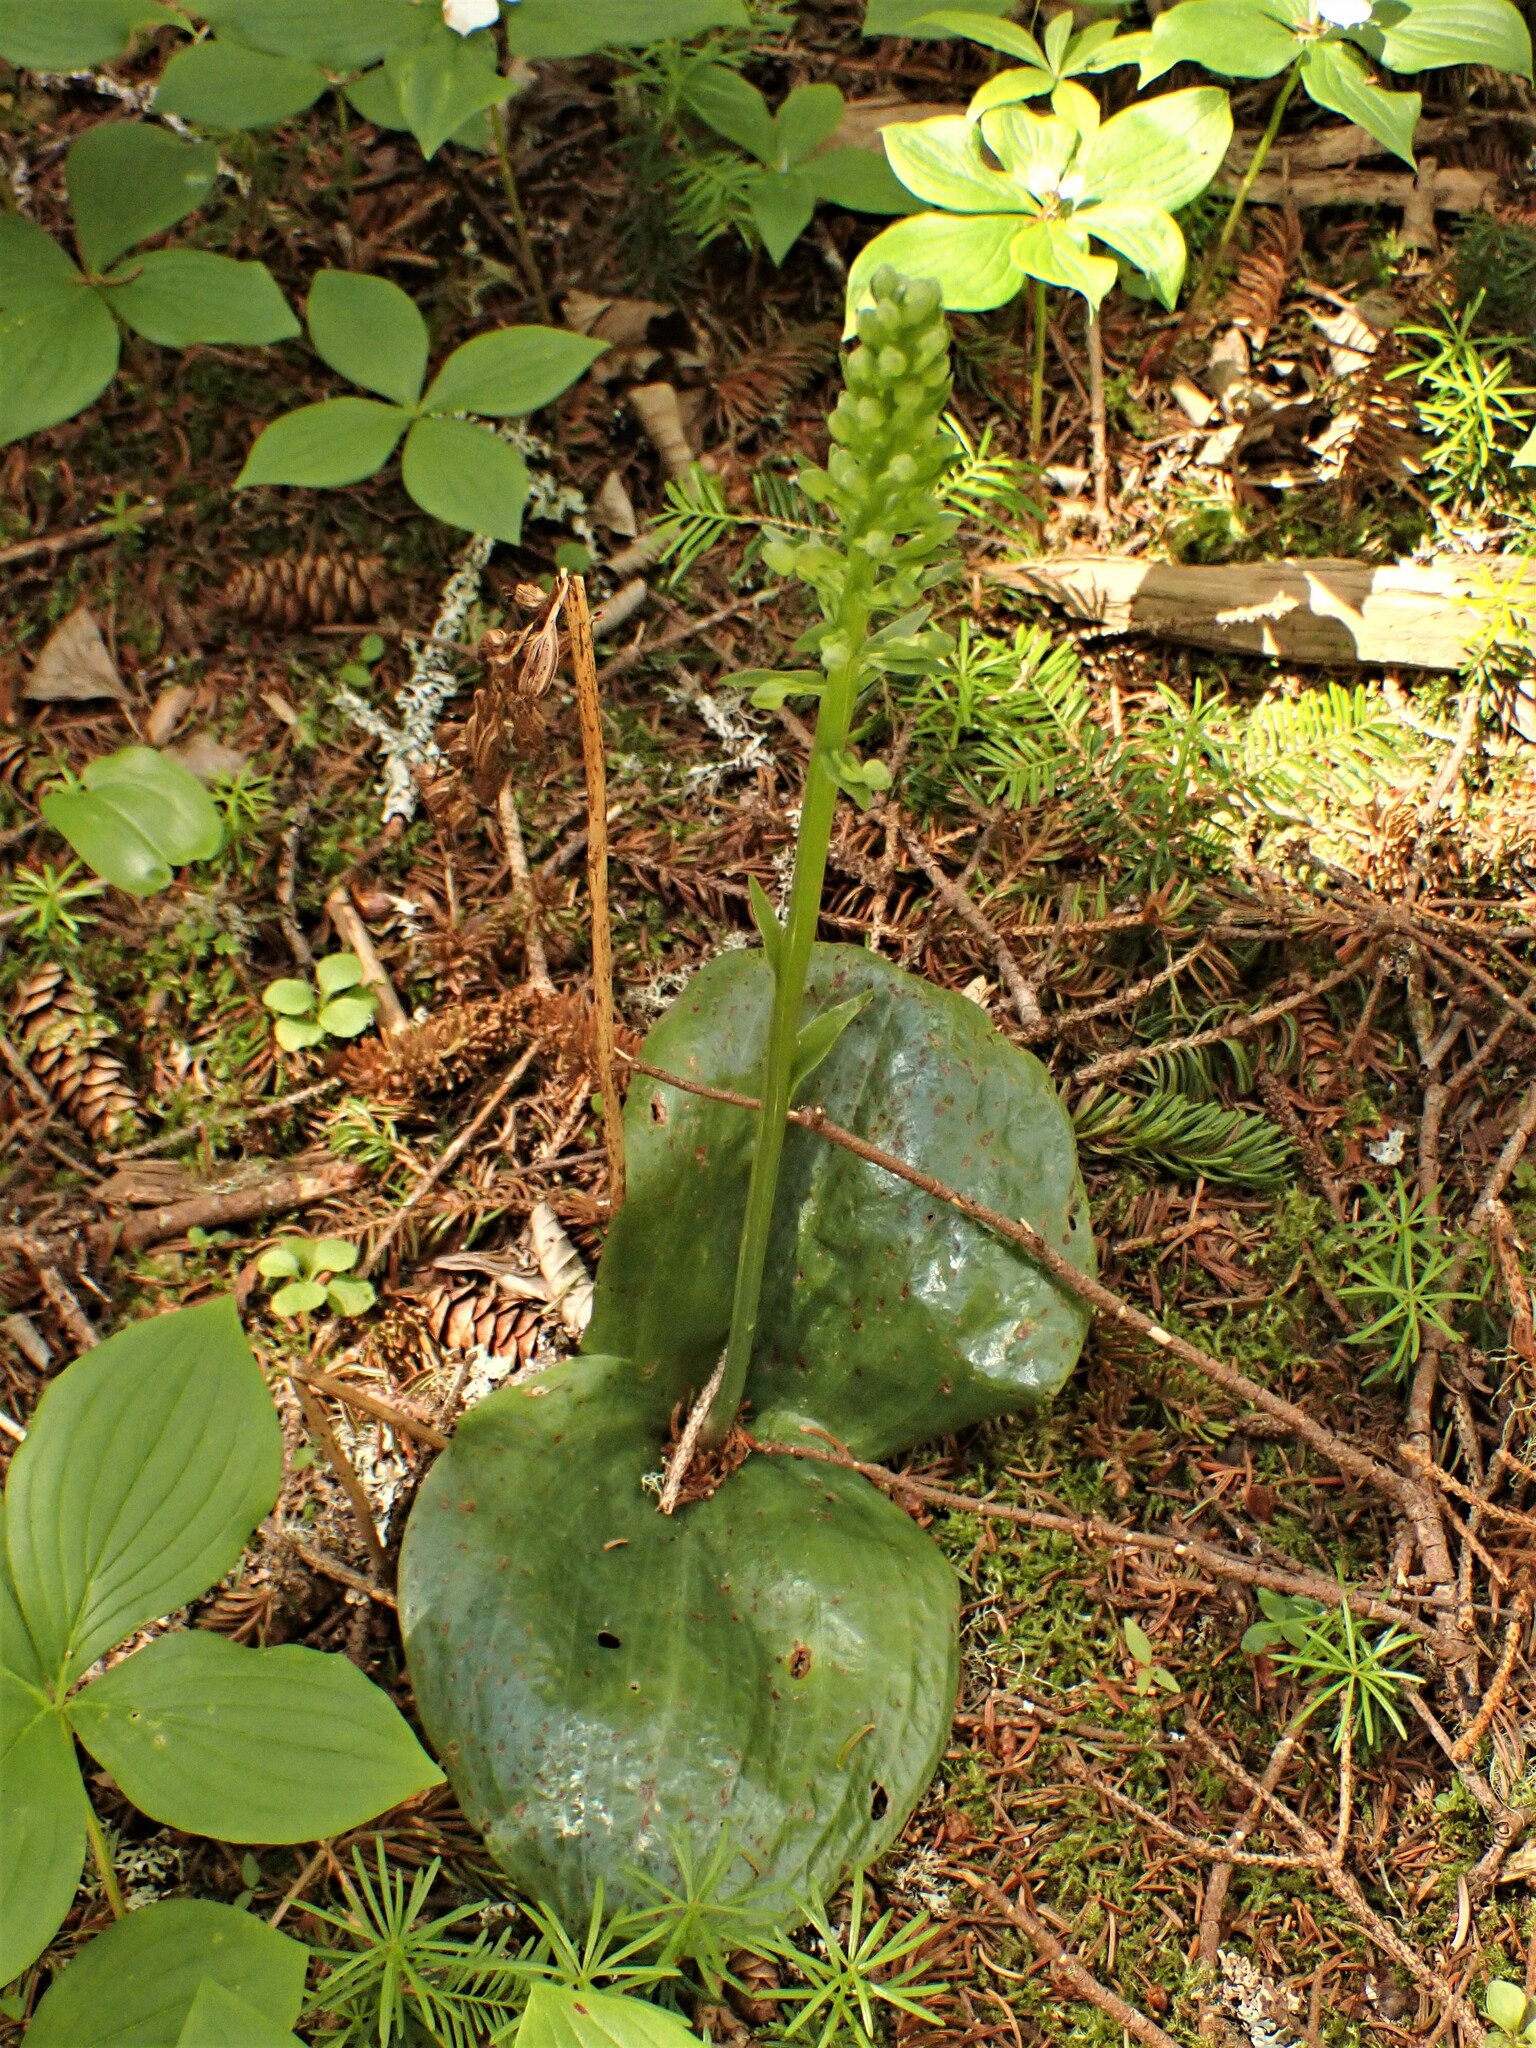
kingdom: Plantae
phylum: Tracheophyta
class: Liliopsida
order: Asparagales
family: Orchidaceae
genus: Platanthera
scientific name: Platanthera orbiculata
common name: Large round-leaved orchid
